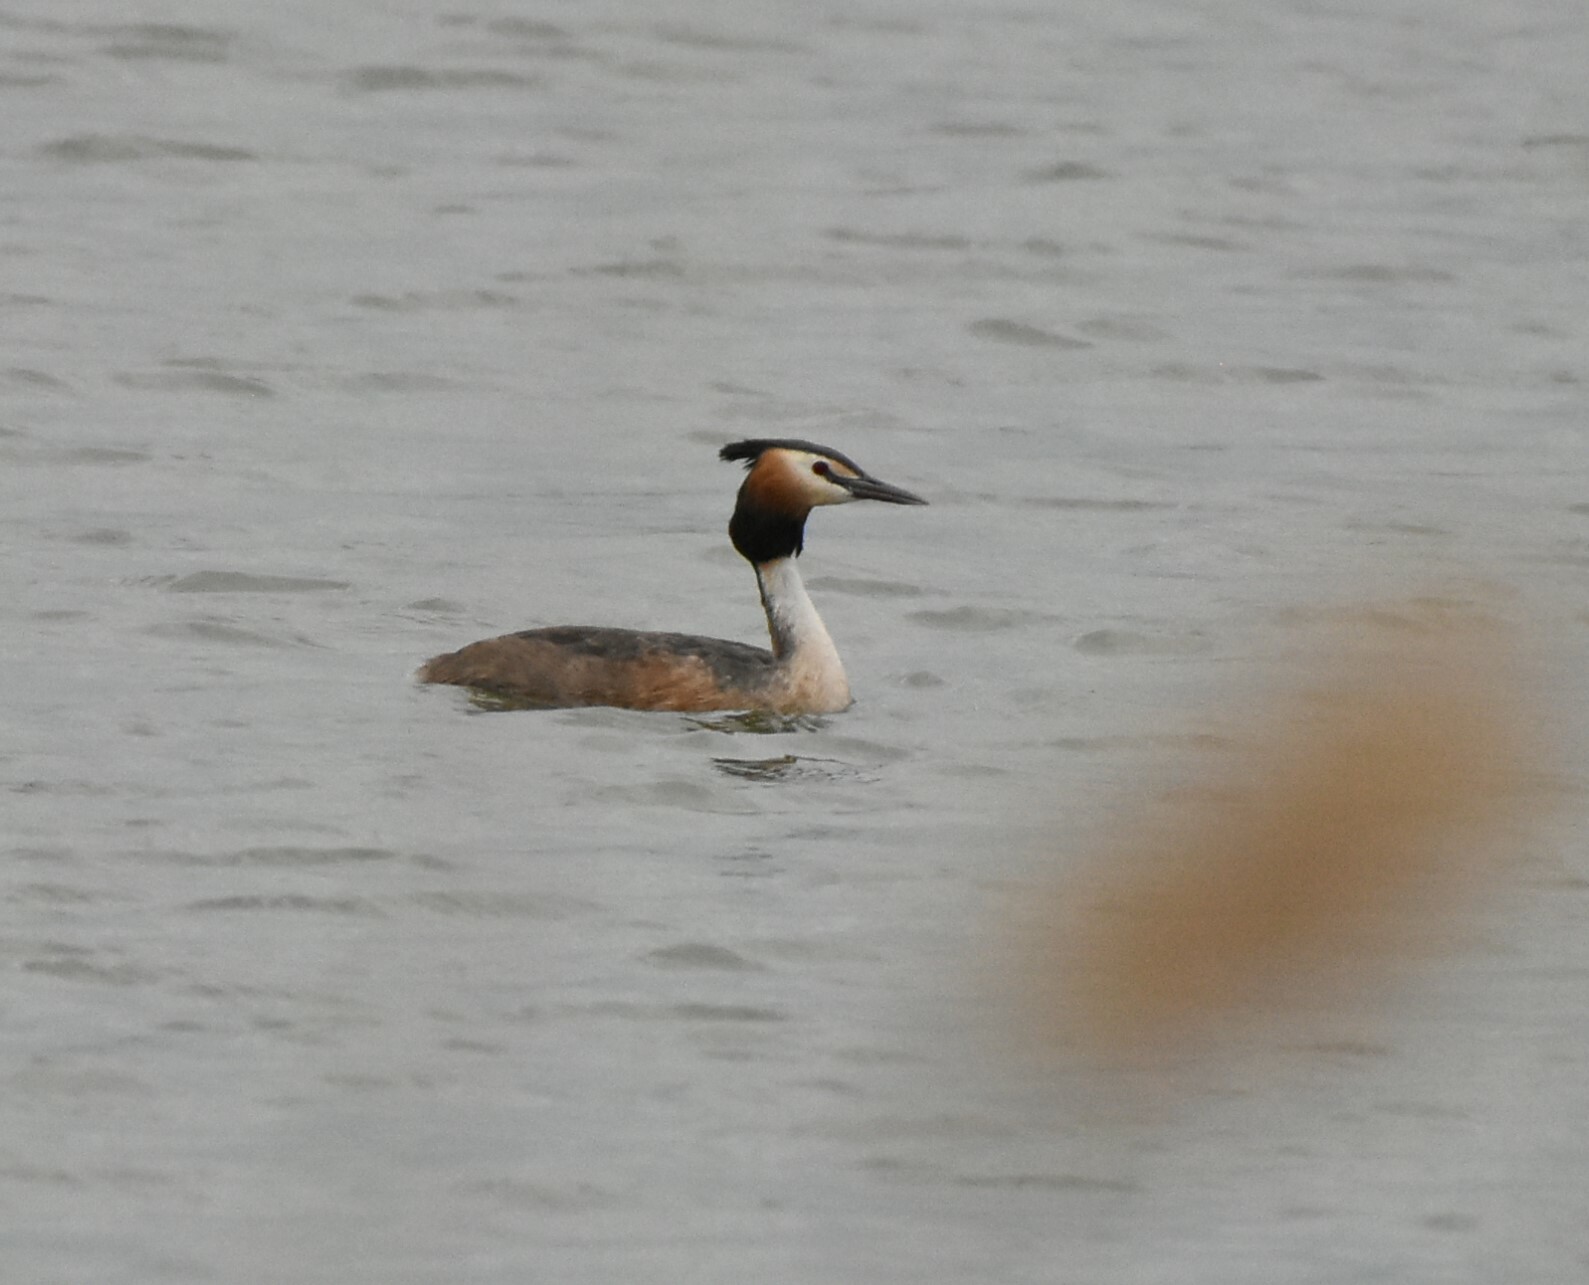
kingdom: Animalia
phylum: Chordata
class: Aves
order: Podicipediformes
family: Podicipedidae
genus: Podiceps
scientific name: Podiceps cristatus
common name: Great crested grebe
